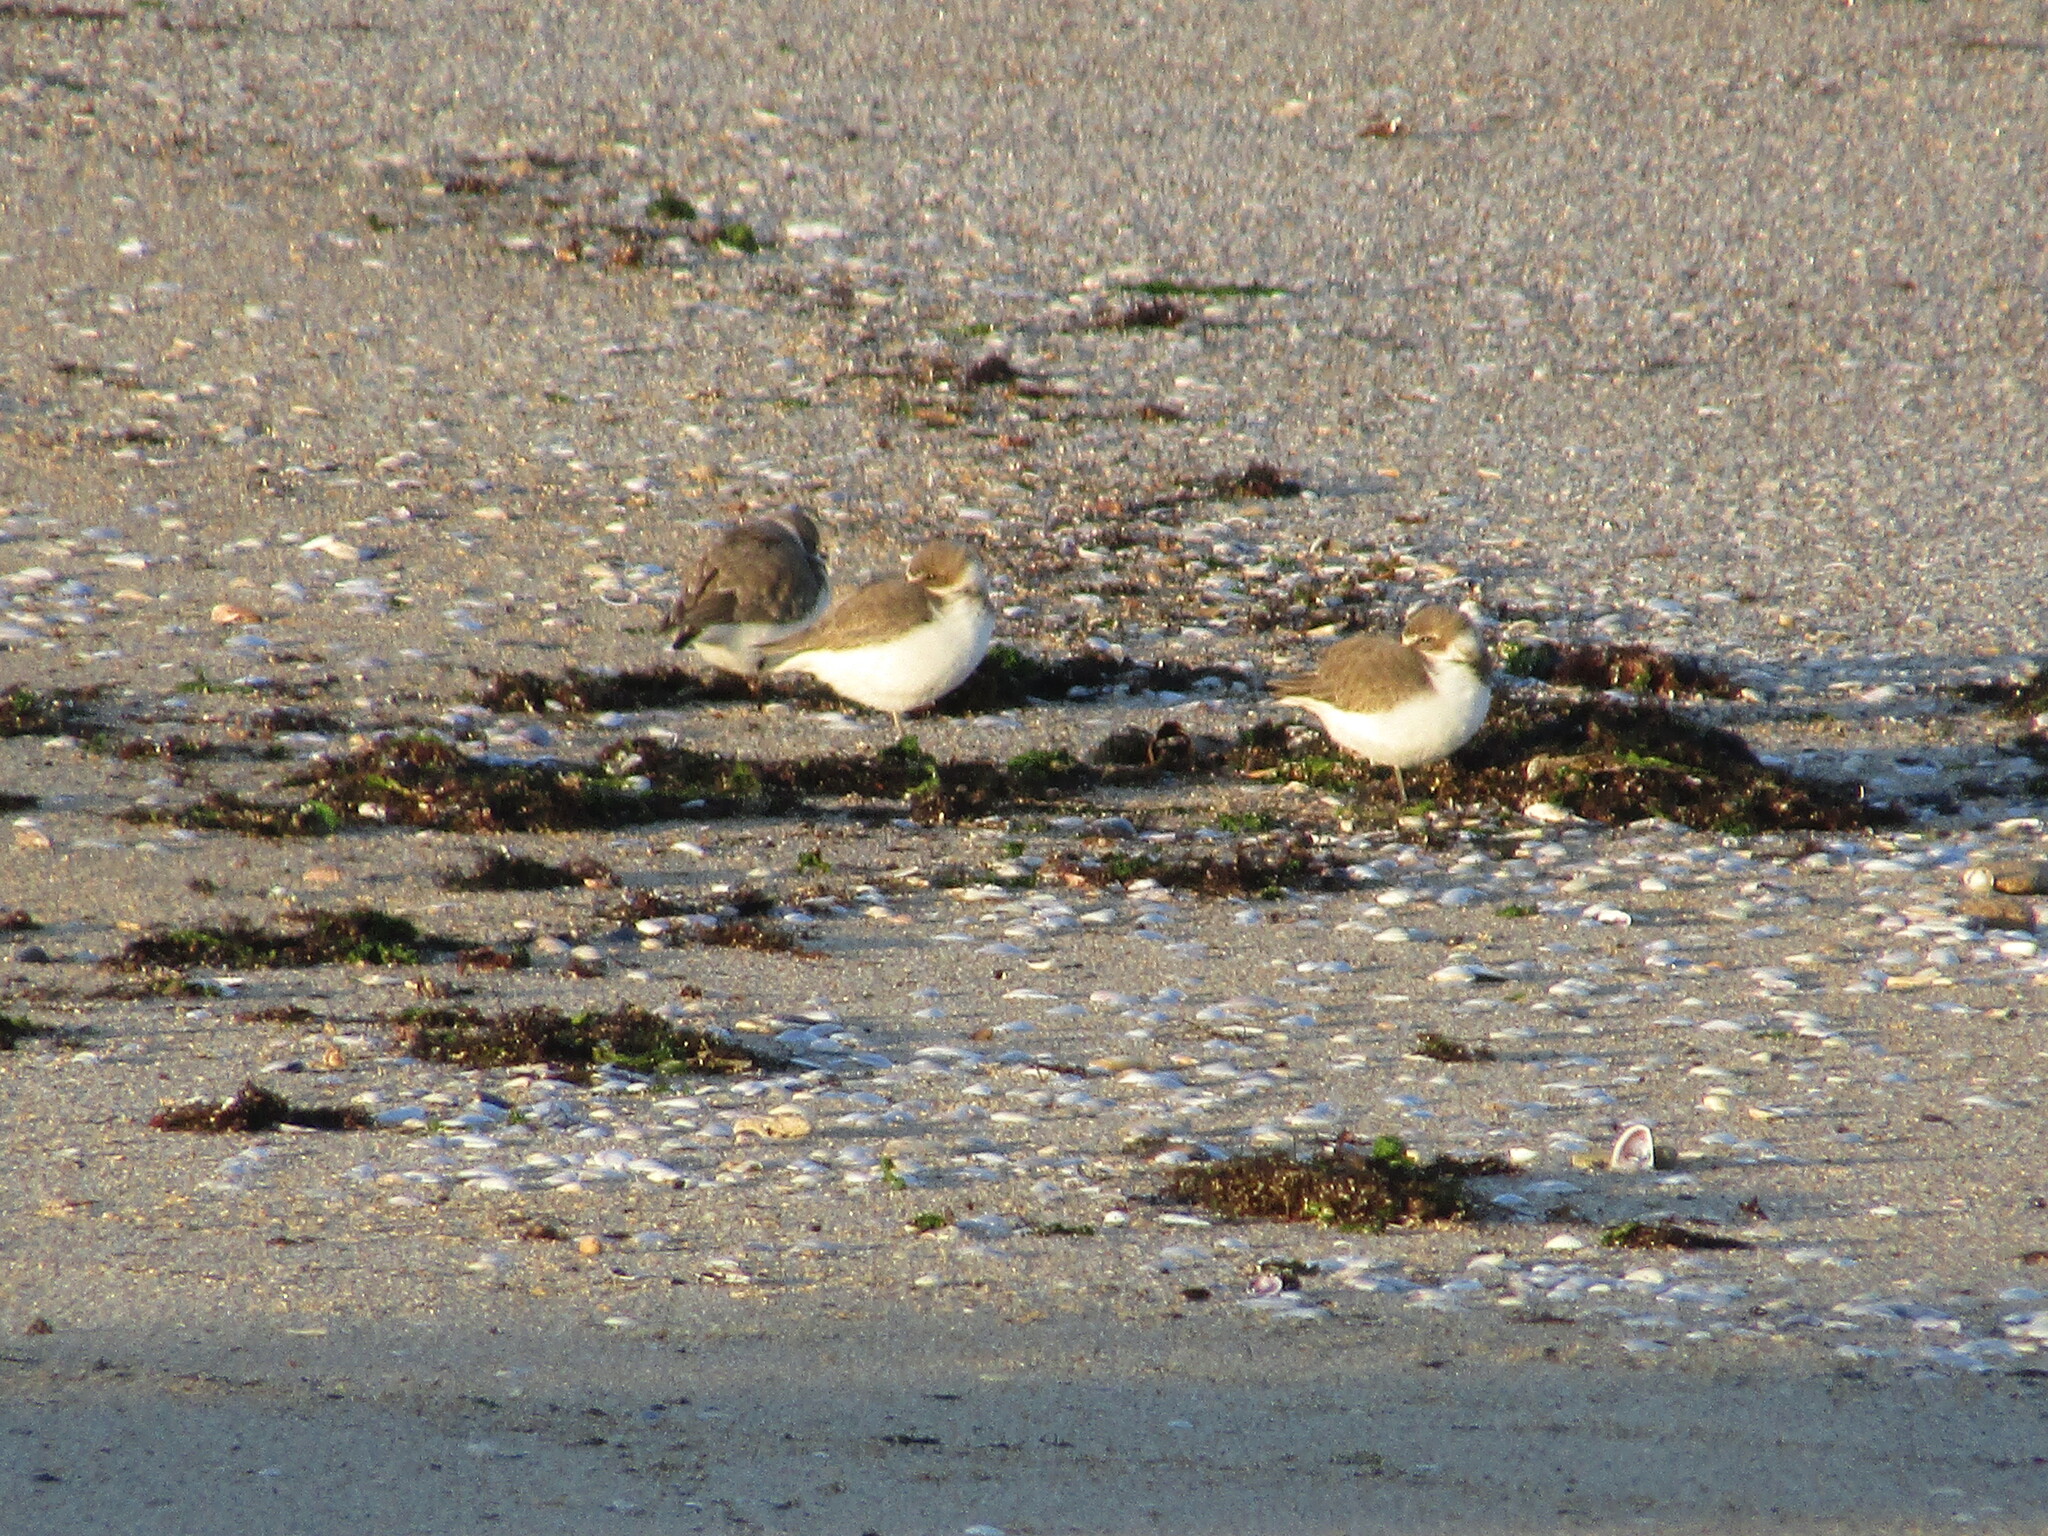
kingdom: Animalia
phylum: Chordata
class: Aves
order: Charadriiformes
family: Charadriidae
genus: Charadrius
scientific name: Charadrius alexandrinus
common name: Kentish plover
